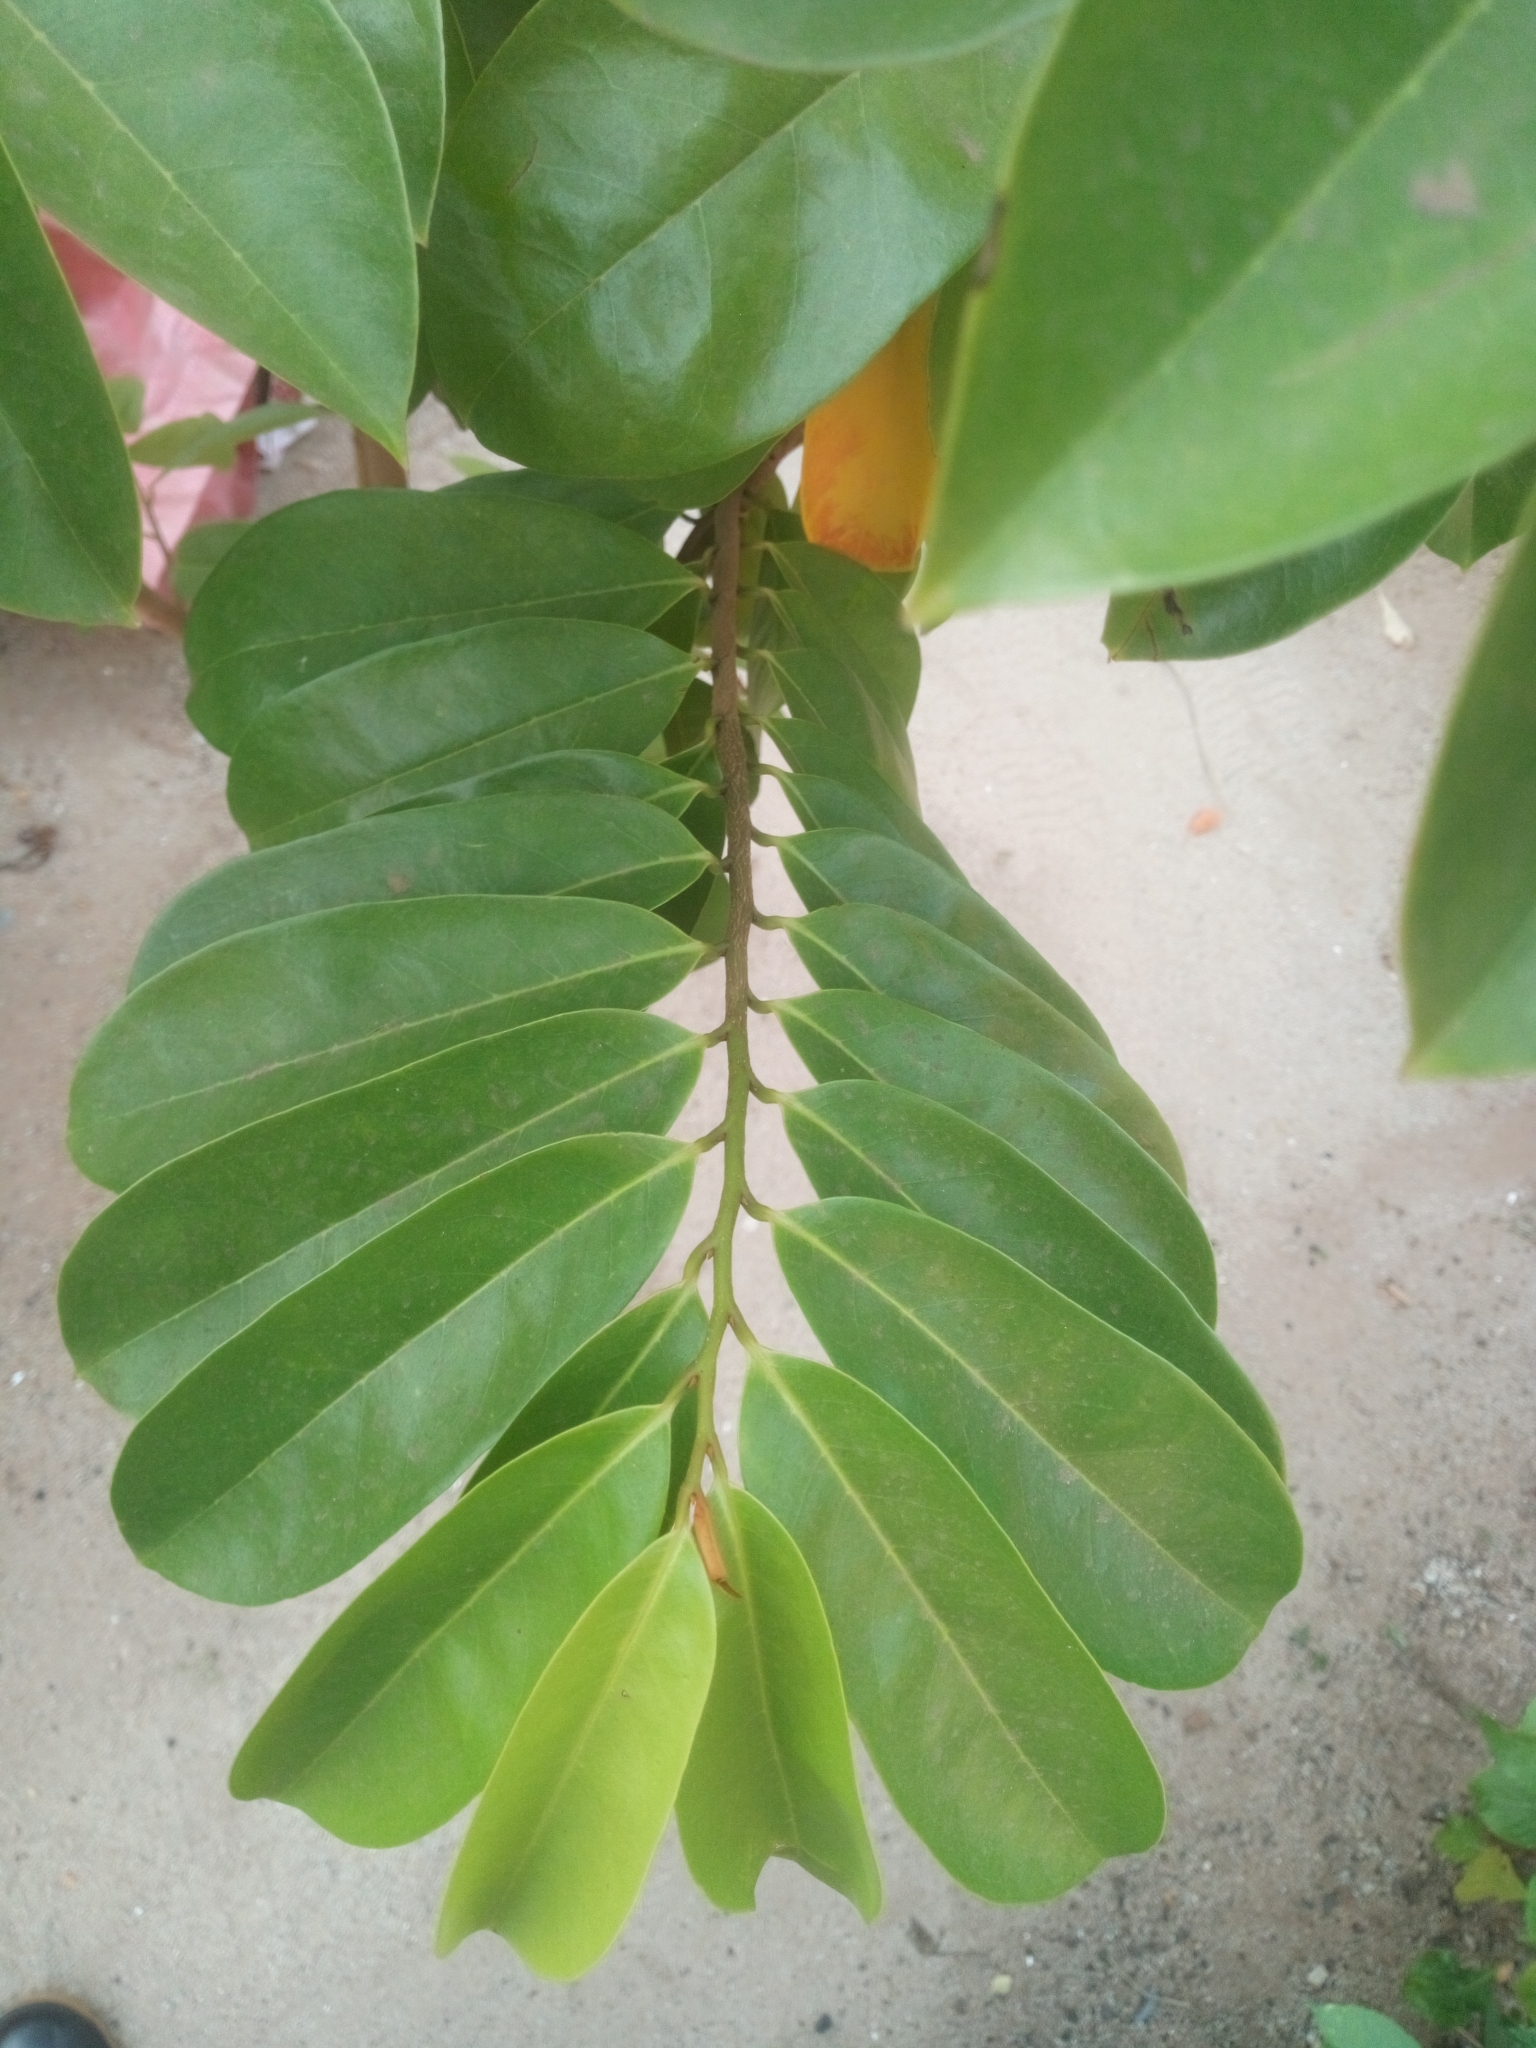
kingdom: Plantae
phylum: Tracheophyta
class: Magnoliopsida
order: Magnoliales
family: Annonaceae
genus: Annona
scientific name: Annona muricata
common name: Soursop
